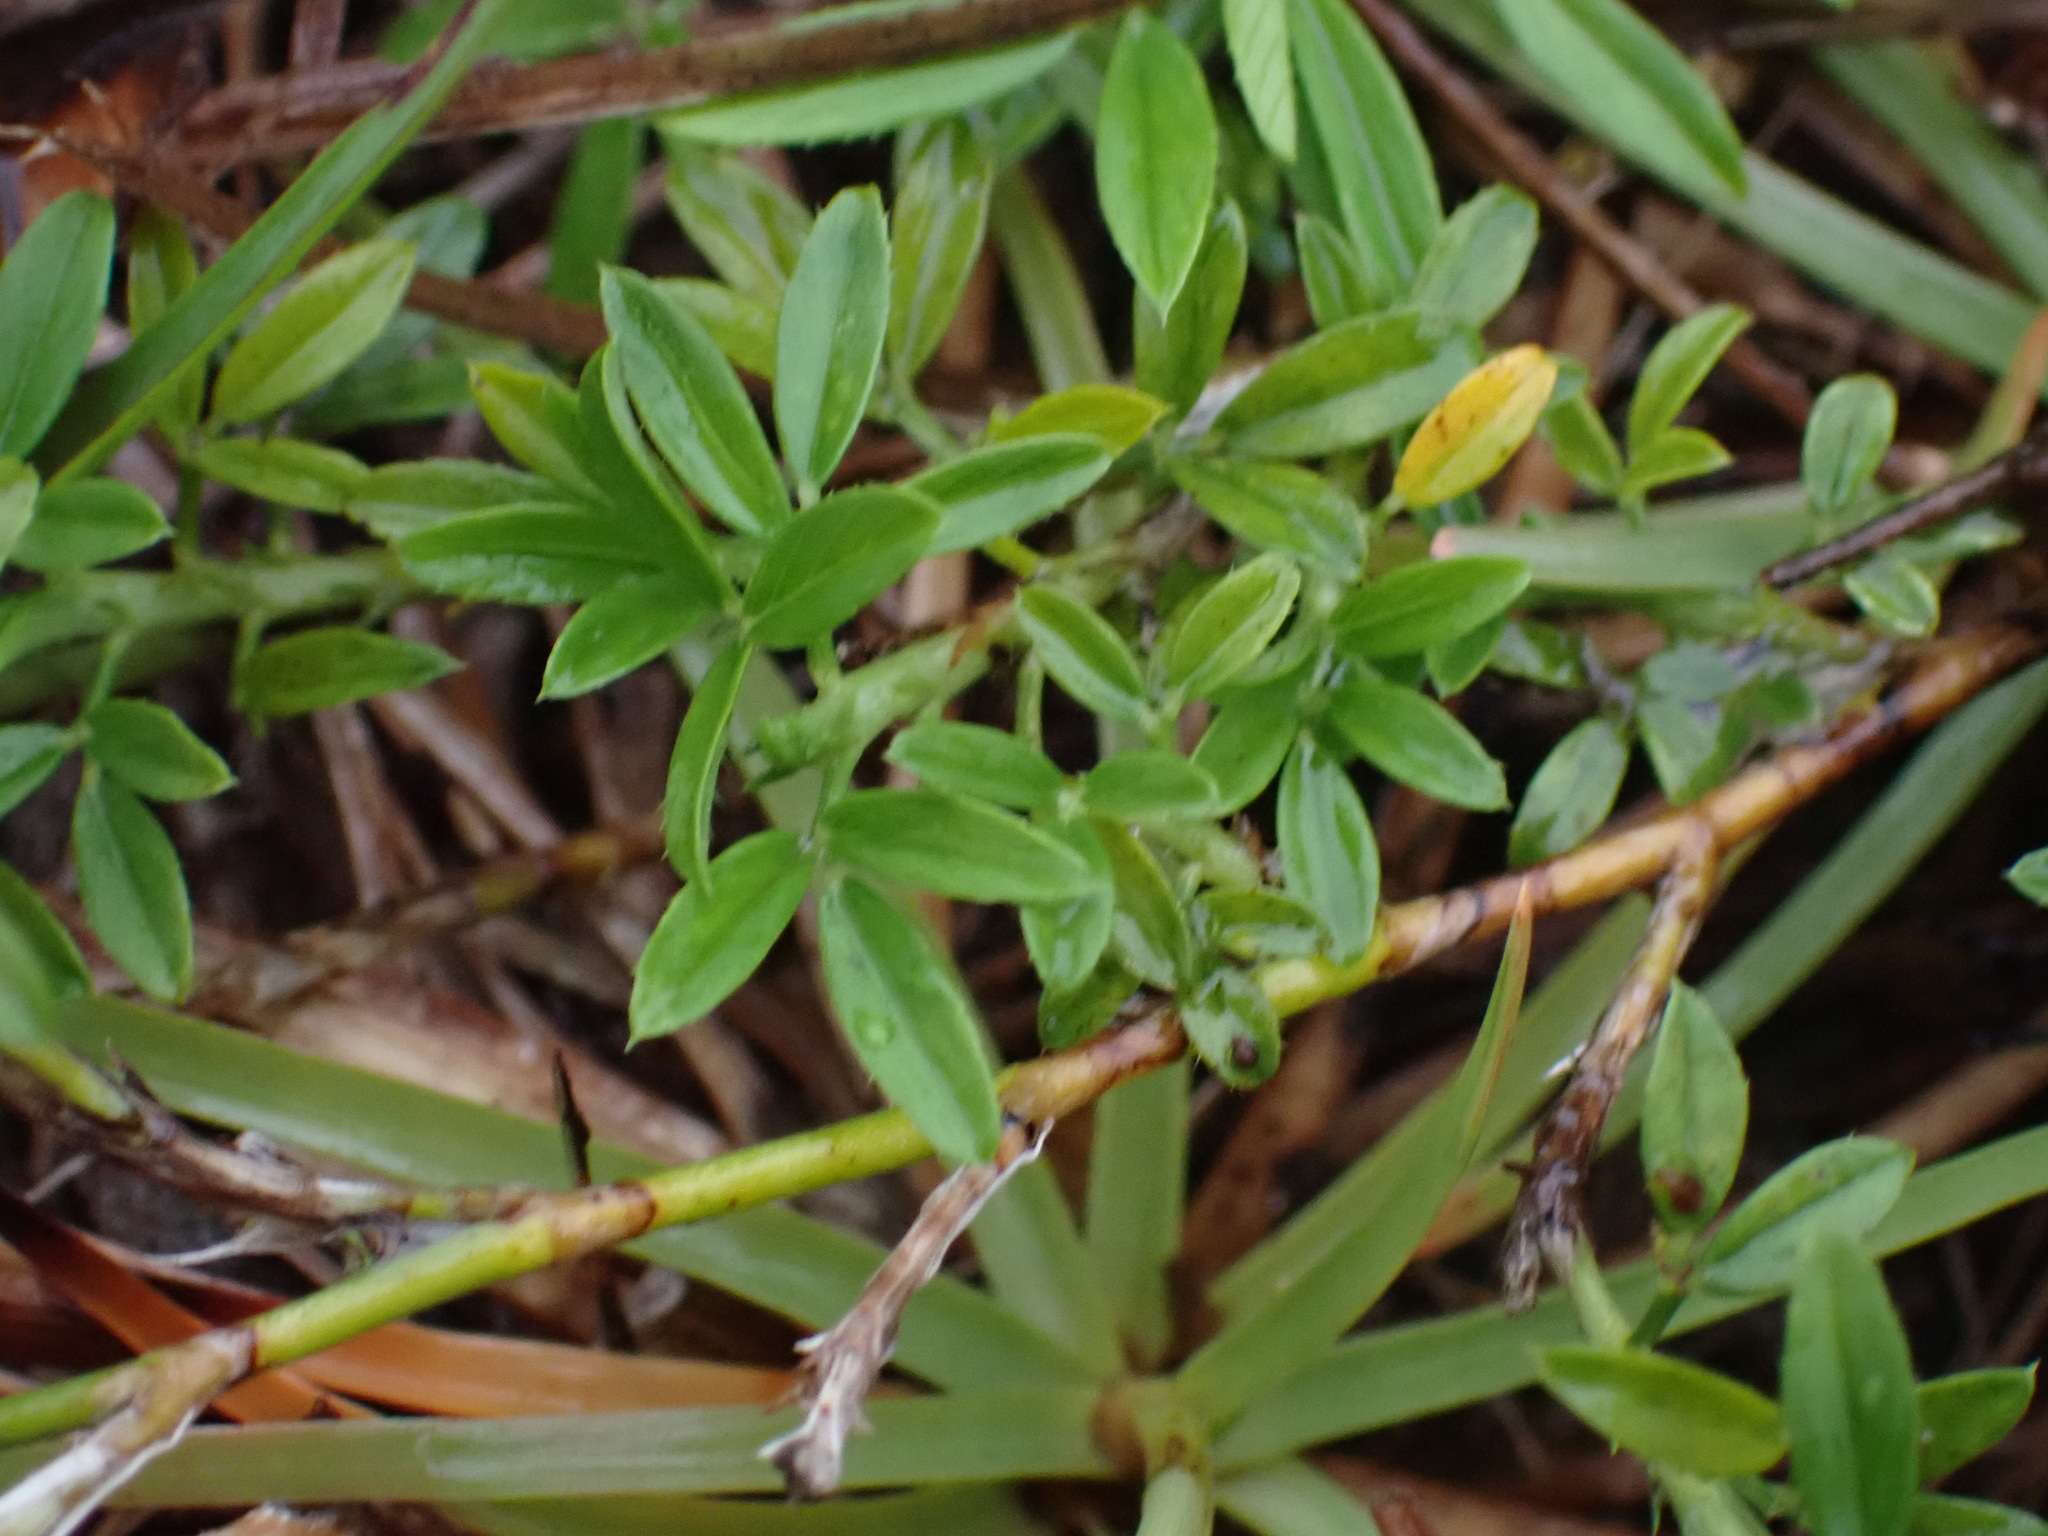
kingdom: Plantae
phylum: Tracheophyta
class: Magnoliopsida
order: Fabales
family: Fabaceae
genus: Stylosanthes
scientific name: Stylosanthes hamata
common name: Cheesytoes
